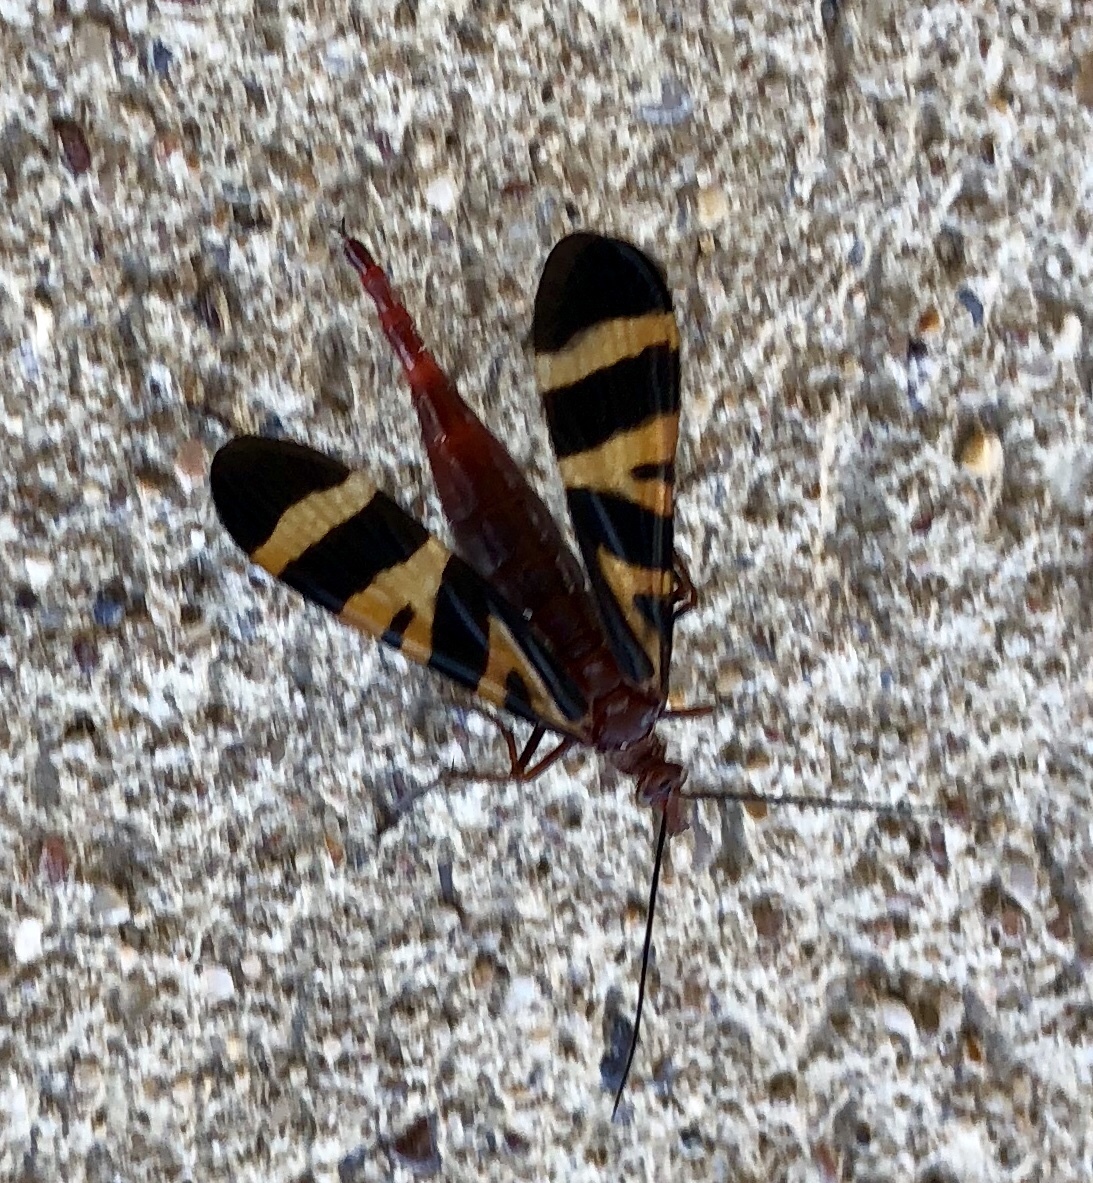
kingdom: Animalia
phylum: Arthropoda
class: Insecta
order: Mecoptera
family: Panorpidae
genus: Panorpa
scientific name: Panorpa nuptialis
